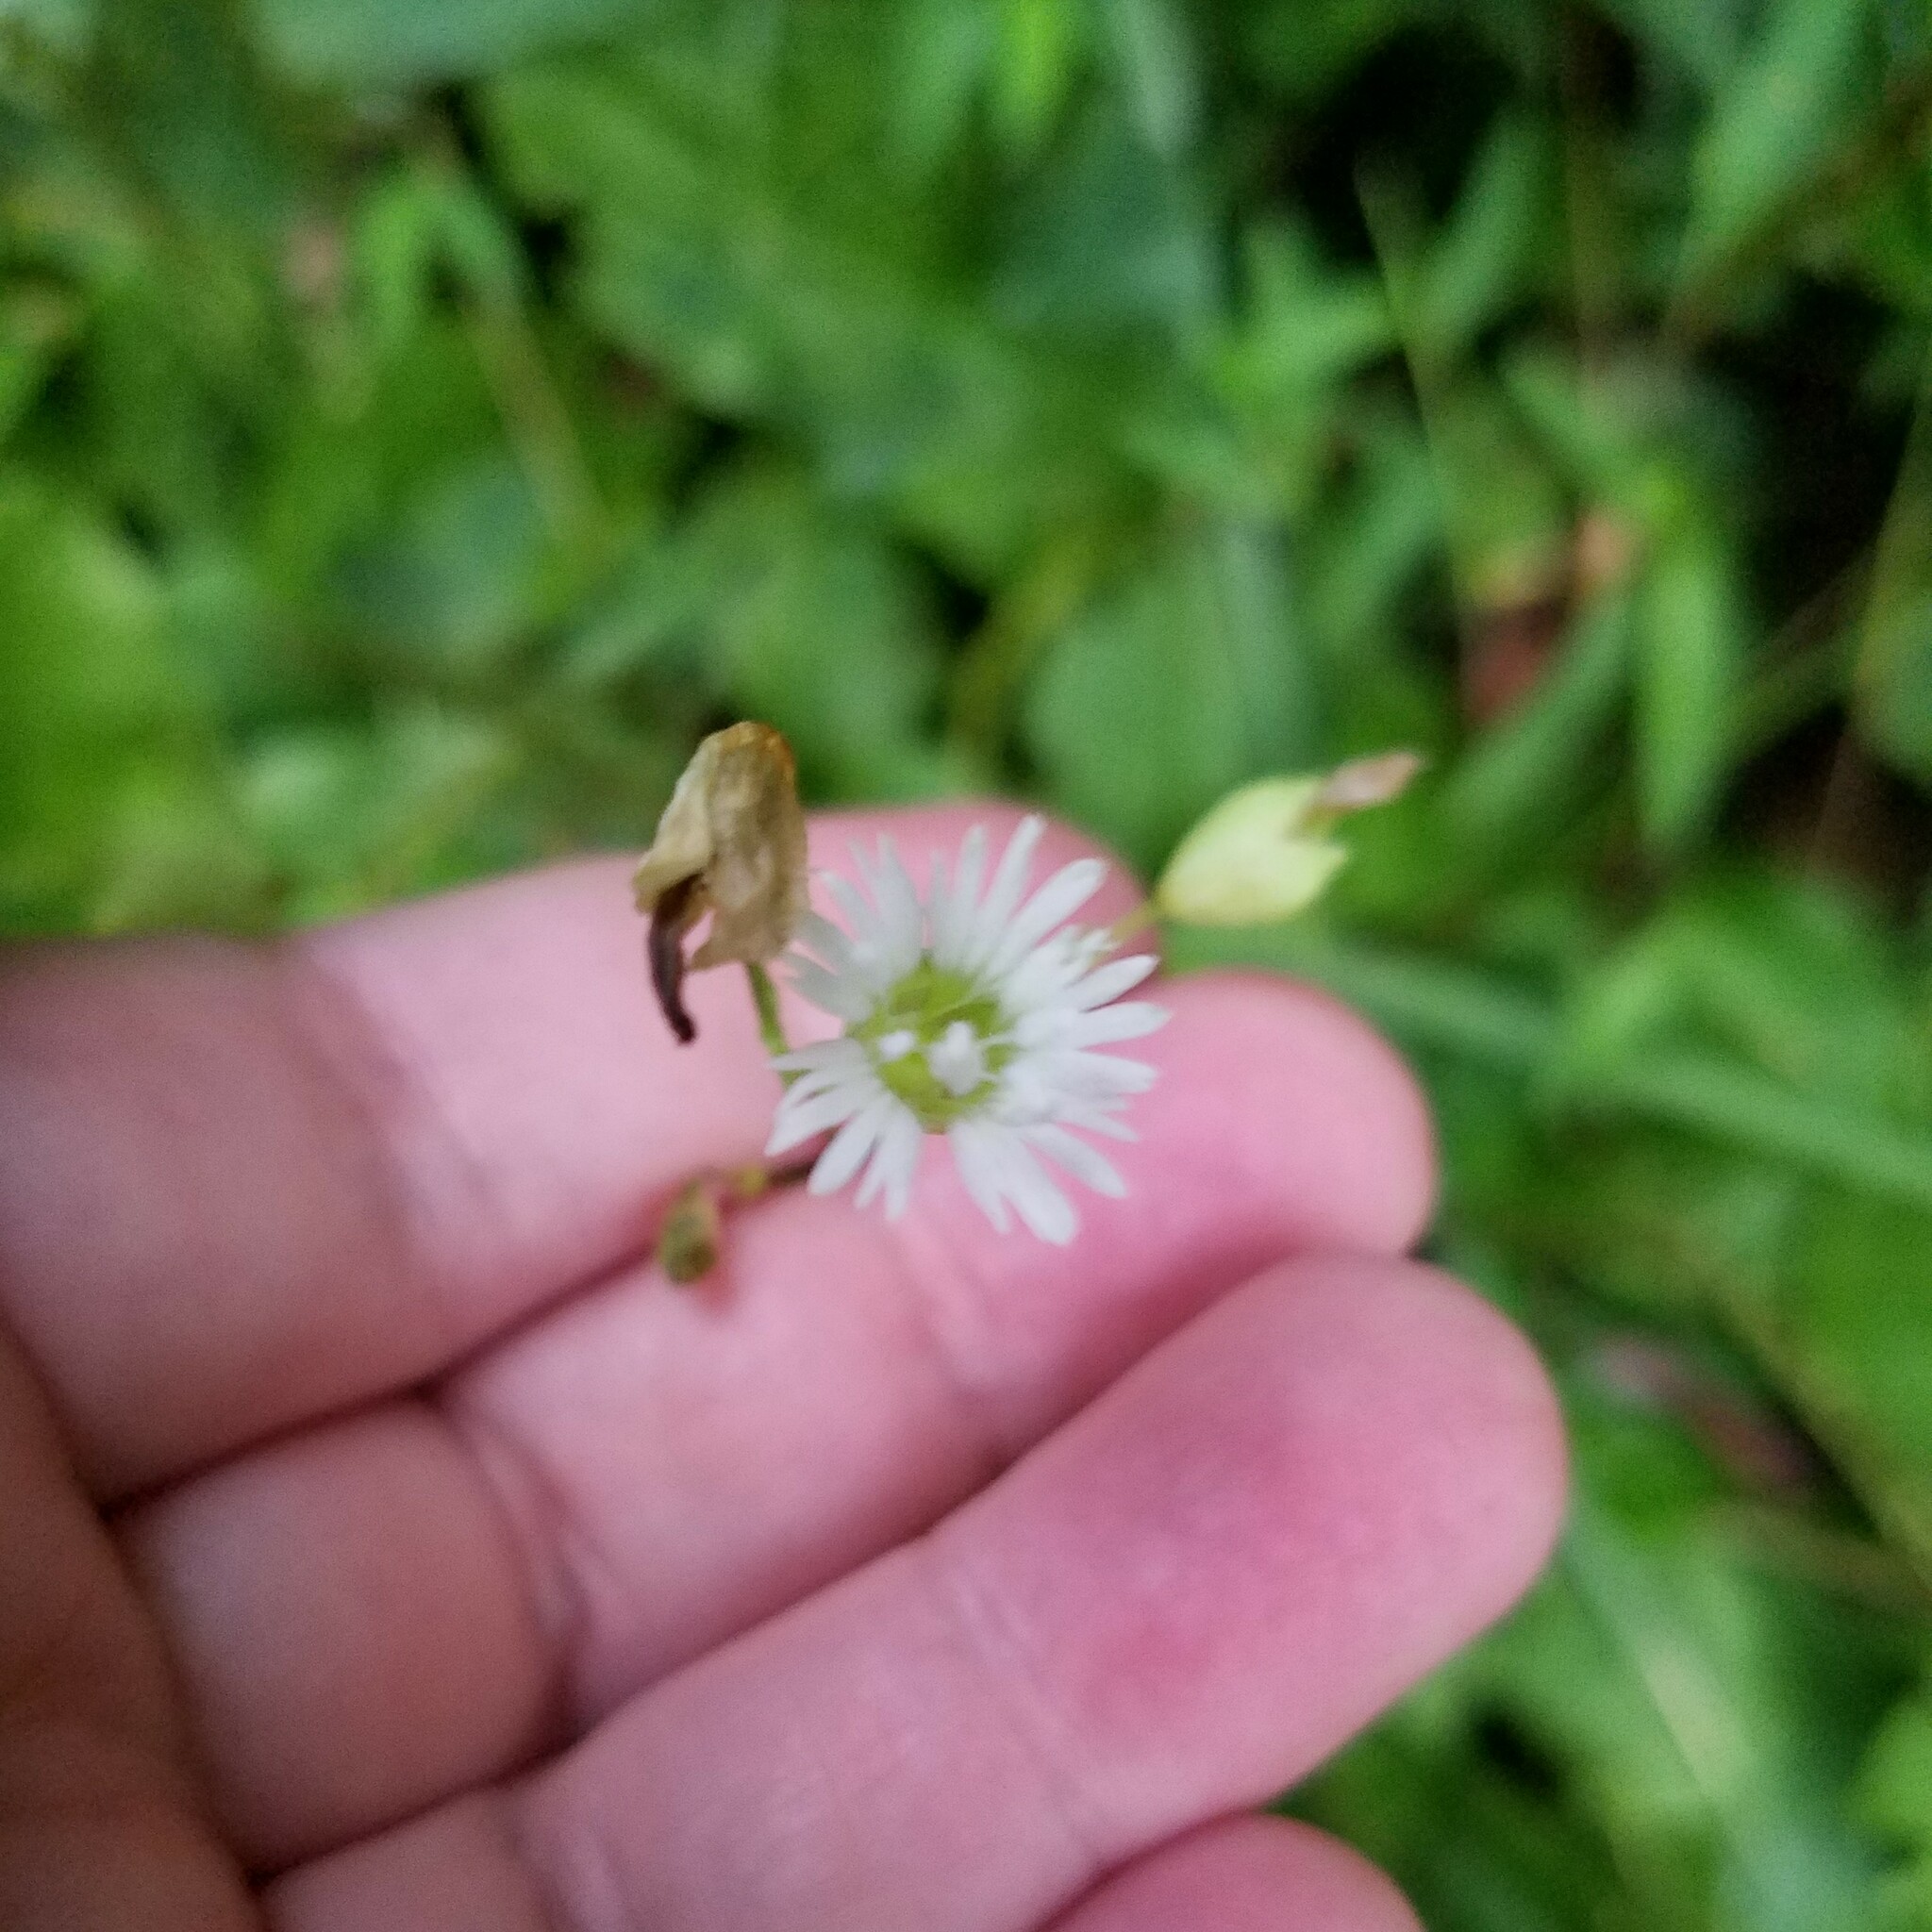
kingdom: Plantae
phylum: Tracheophyta
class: Magnoliopsida
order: Caryophyllales
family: Caryophyllaceae
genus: Silene
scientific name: Silene stellata
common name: Starry campion
